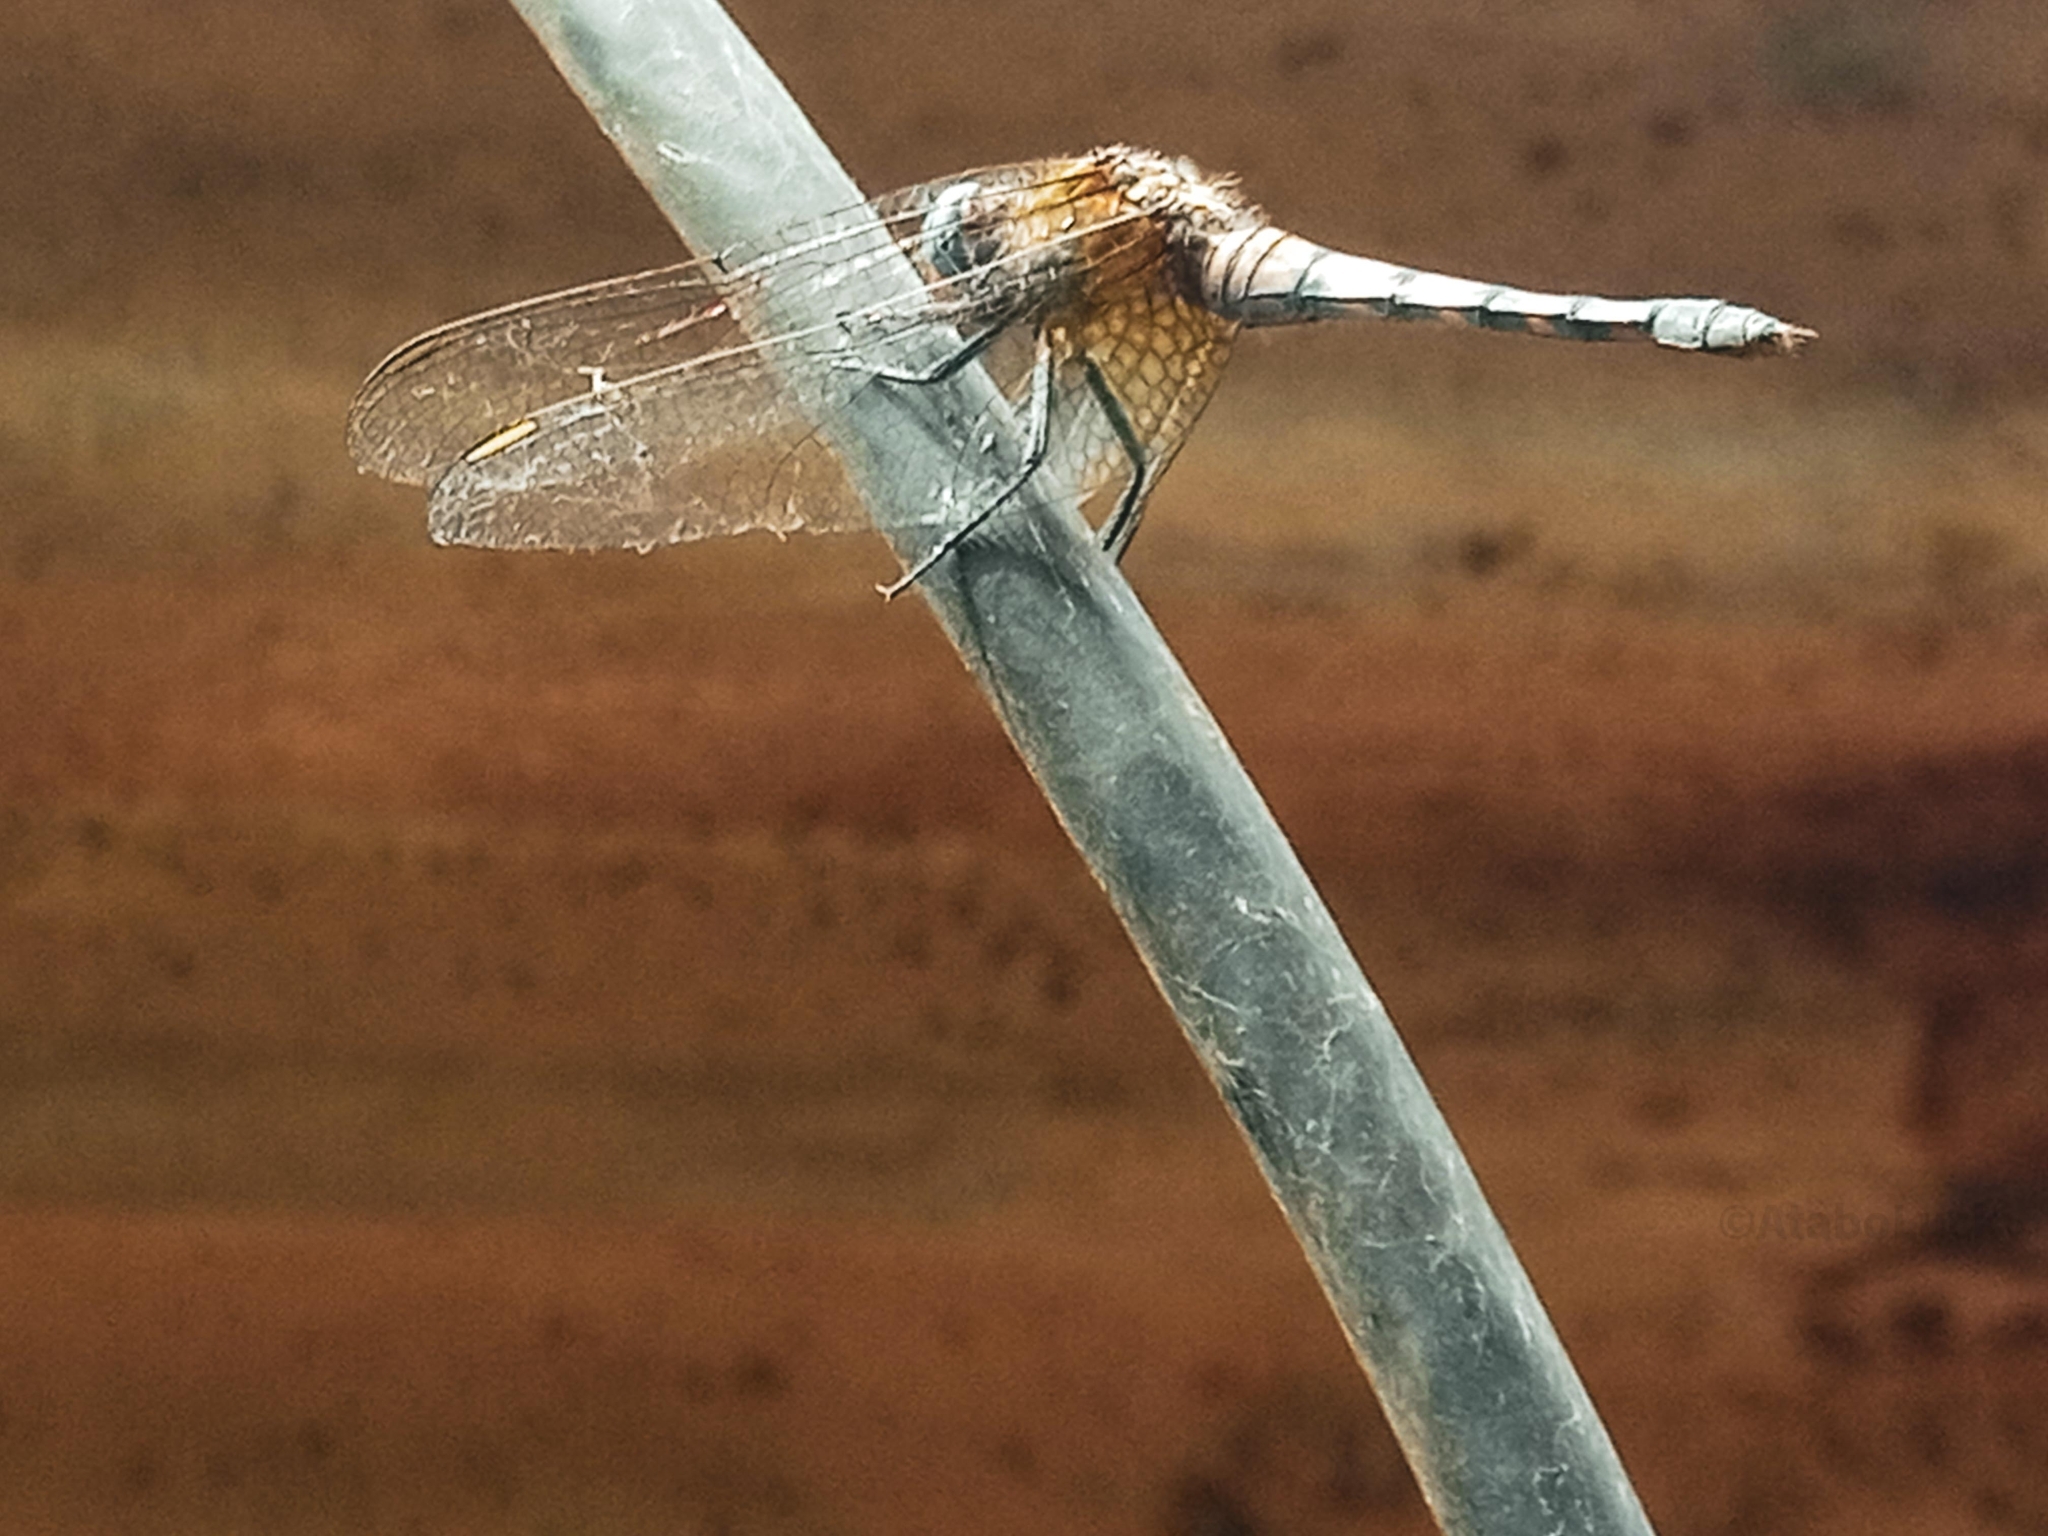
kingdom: Animalia
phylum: Arthropoda
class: Insecta
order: Odonata
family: Libellulidae
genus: Orthetrum
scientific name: Orthetrum austeni
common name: Giant skimmer
